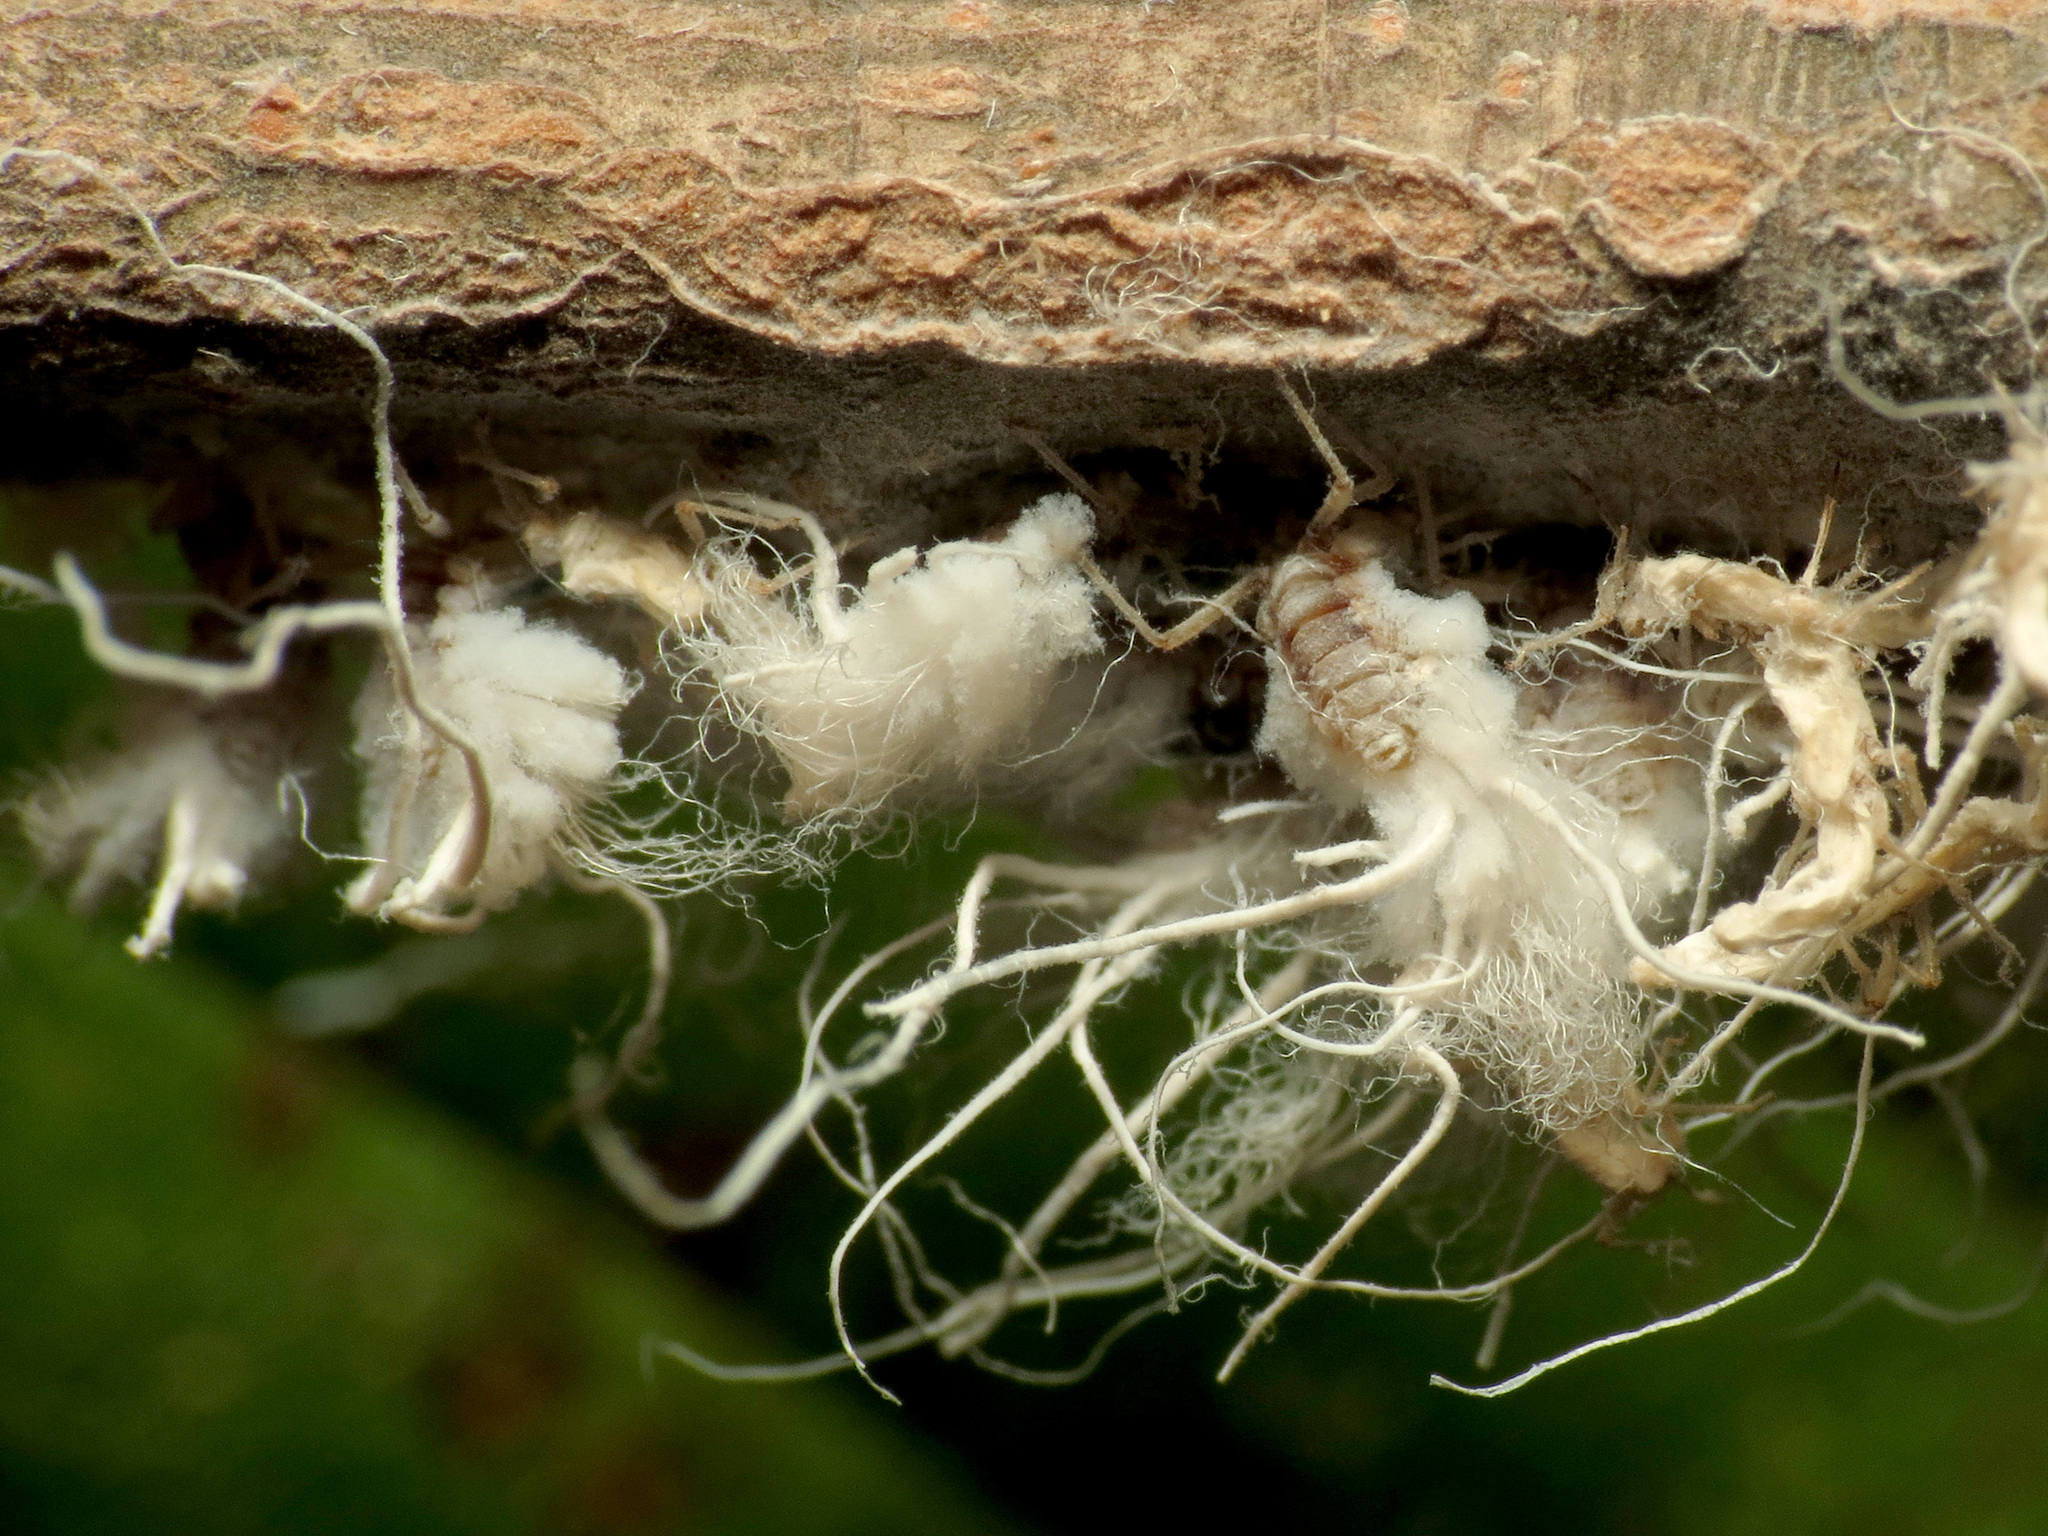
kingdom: Animalia
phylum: Arthropoda
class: Insecta
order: Hemiptera
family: Aphididae
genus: Grylloprociphilus
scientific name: Grylloprociphilus imbricator
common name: Beech blight aphid
